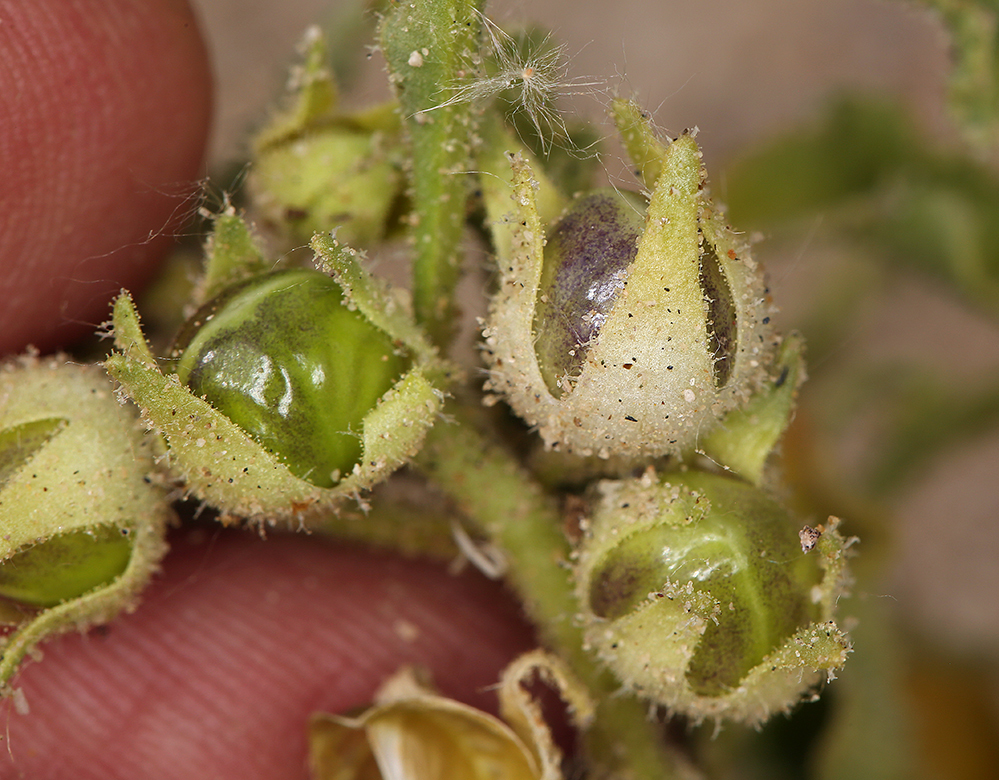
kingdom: Plantae
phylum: Tracheophyta
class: Magnoliopsida
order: Solanales
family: Solanaceae
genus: Oryctes
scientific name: Oryctes nevadensis
